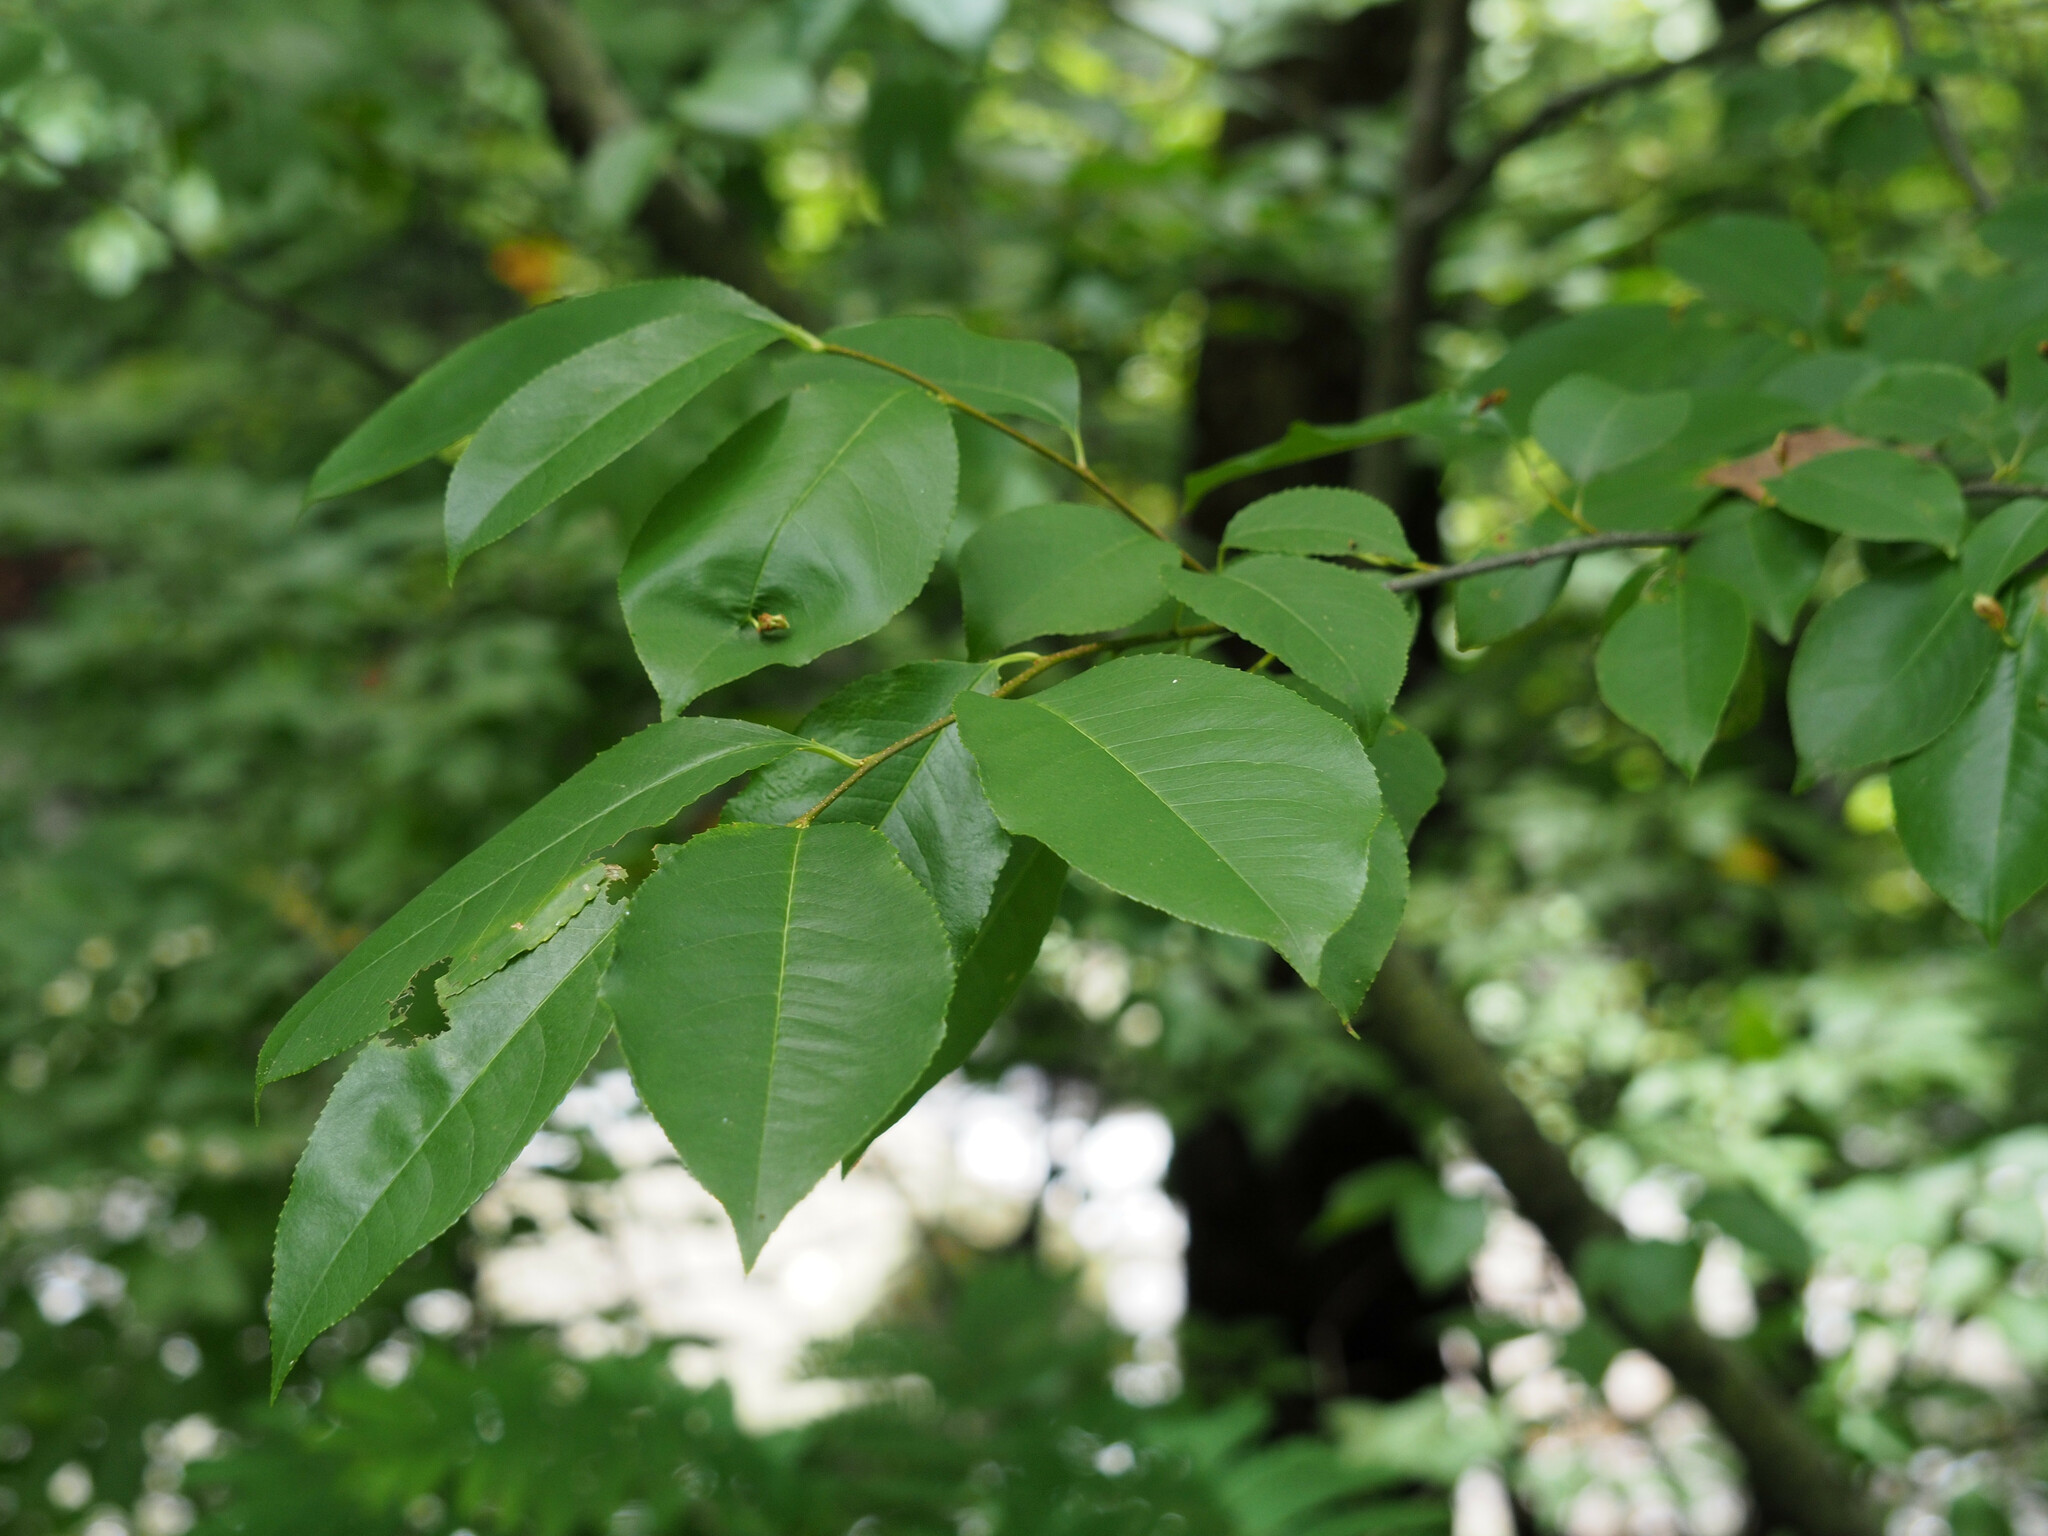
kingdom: Plantae
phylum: Tracheophyta
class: Magnoliopsida
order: Rosales
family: Rosaceae
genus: Prunus
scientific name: Prunus serotina
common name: Black cherry
